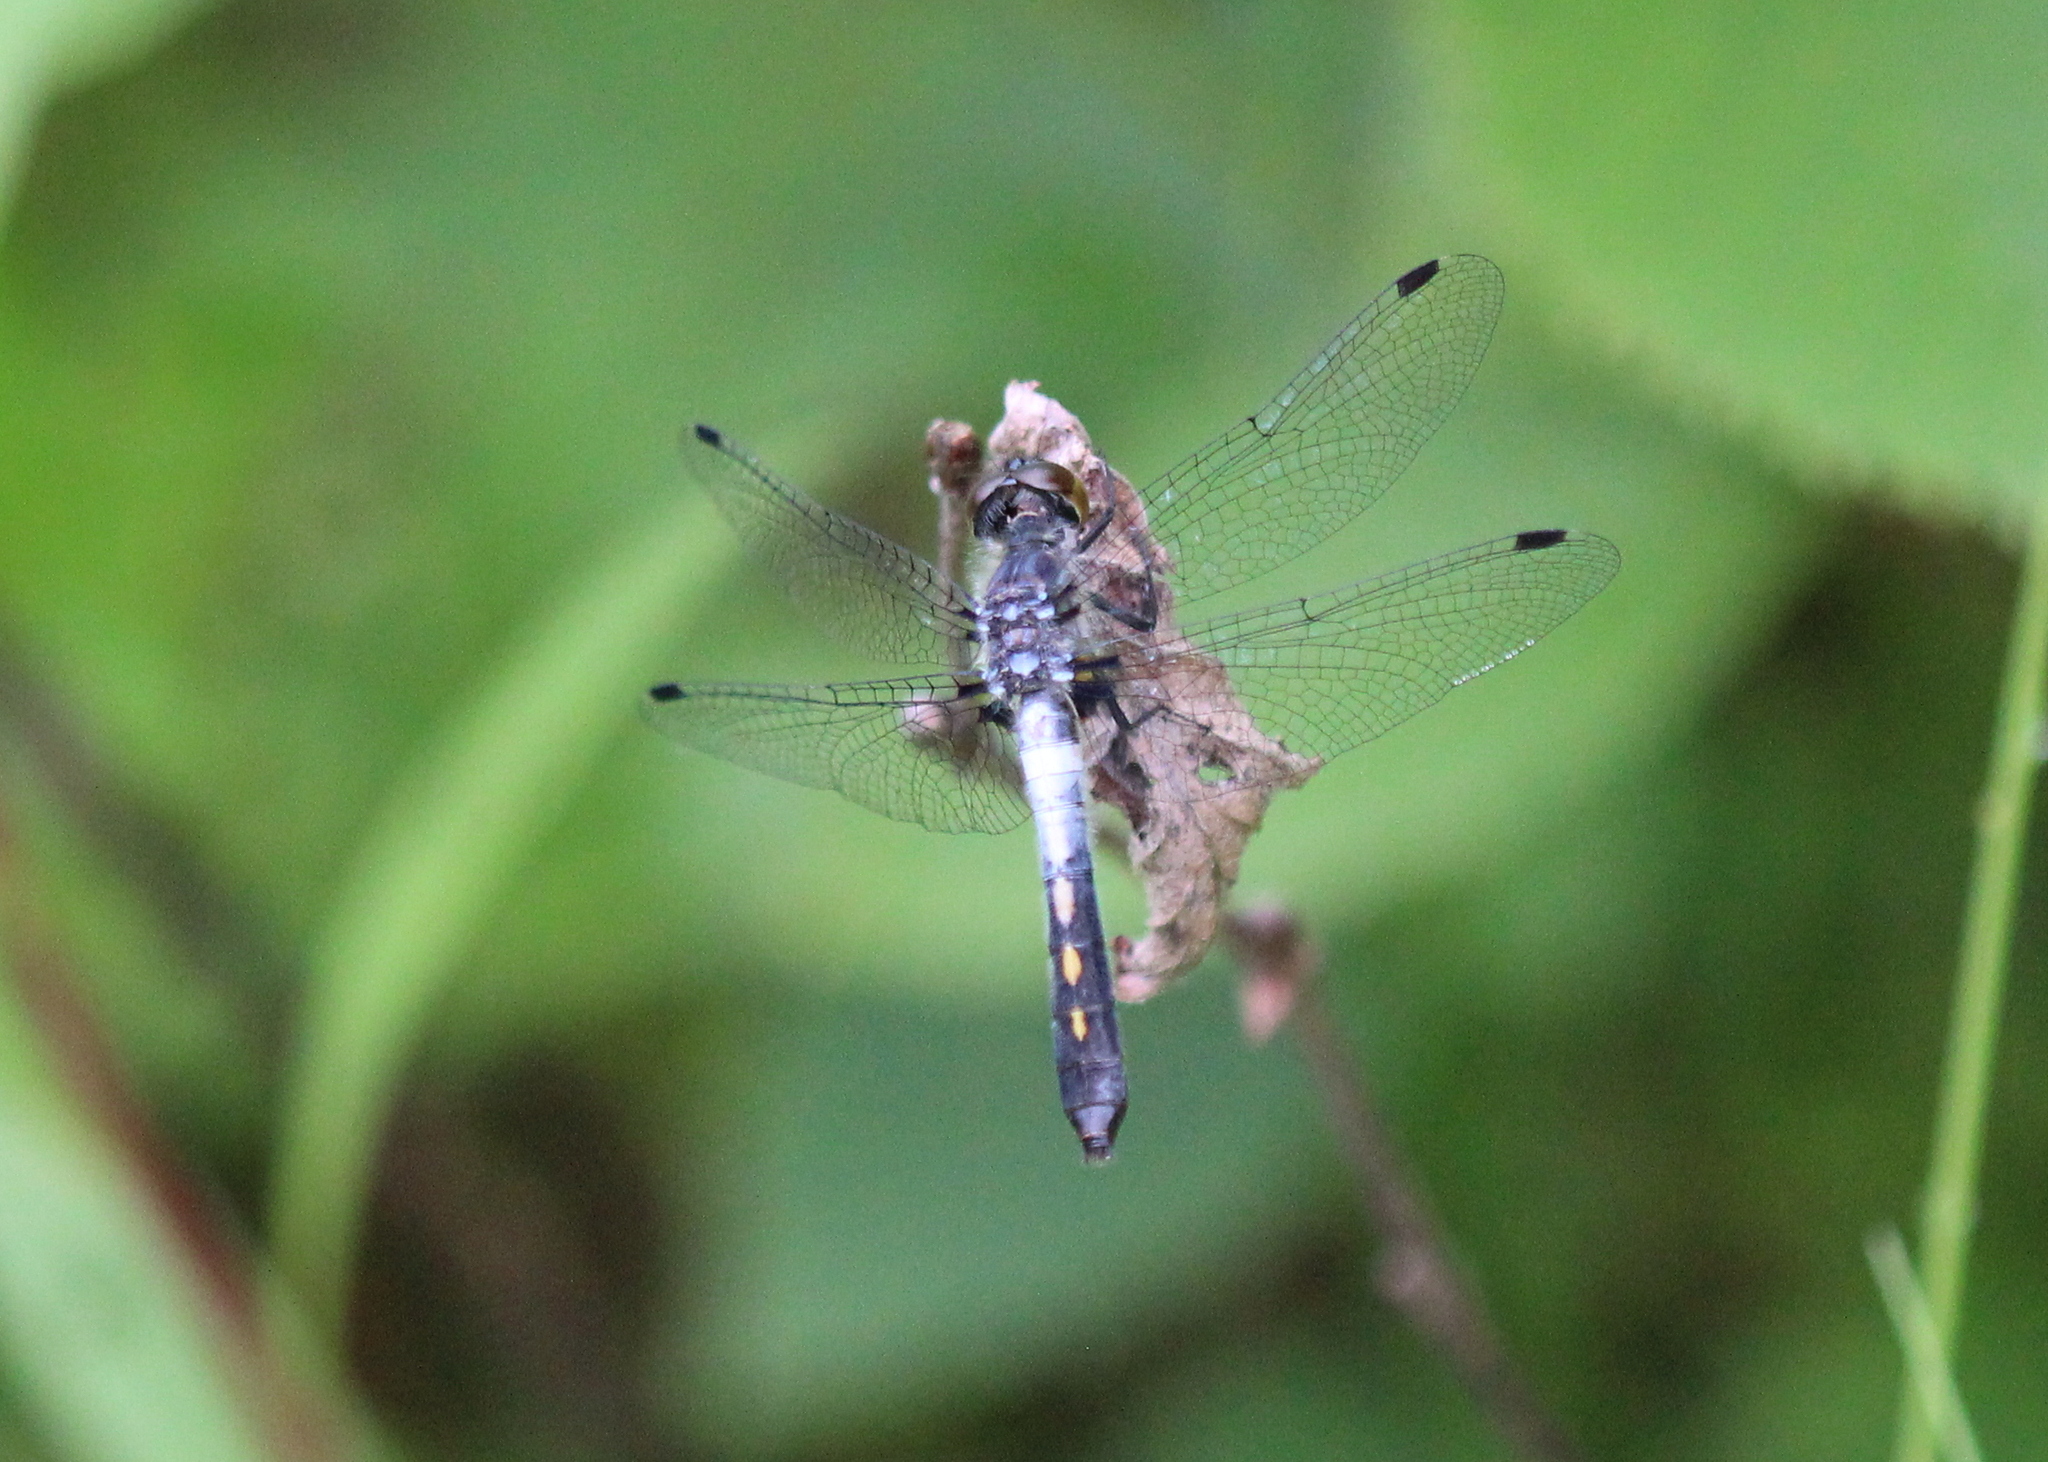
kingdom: Animalia
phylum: Arthropoda
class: Insecta
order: Odonata
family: Libellulidae
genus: Leucorrhinia
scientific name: Leucorrhinia frigida
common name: Frosted whiteface
